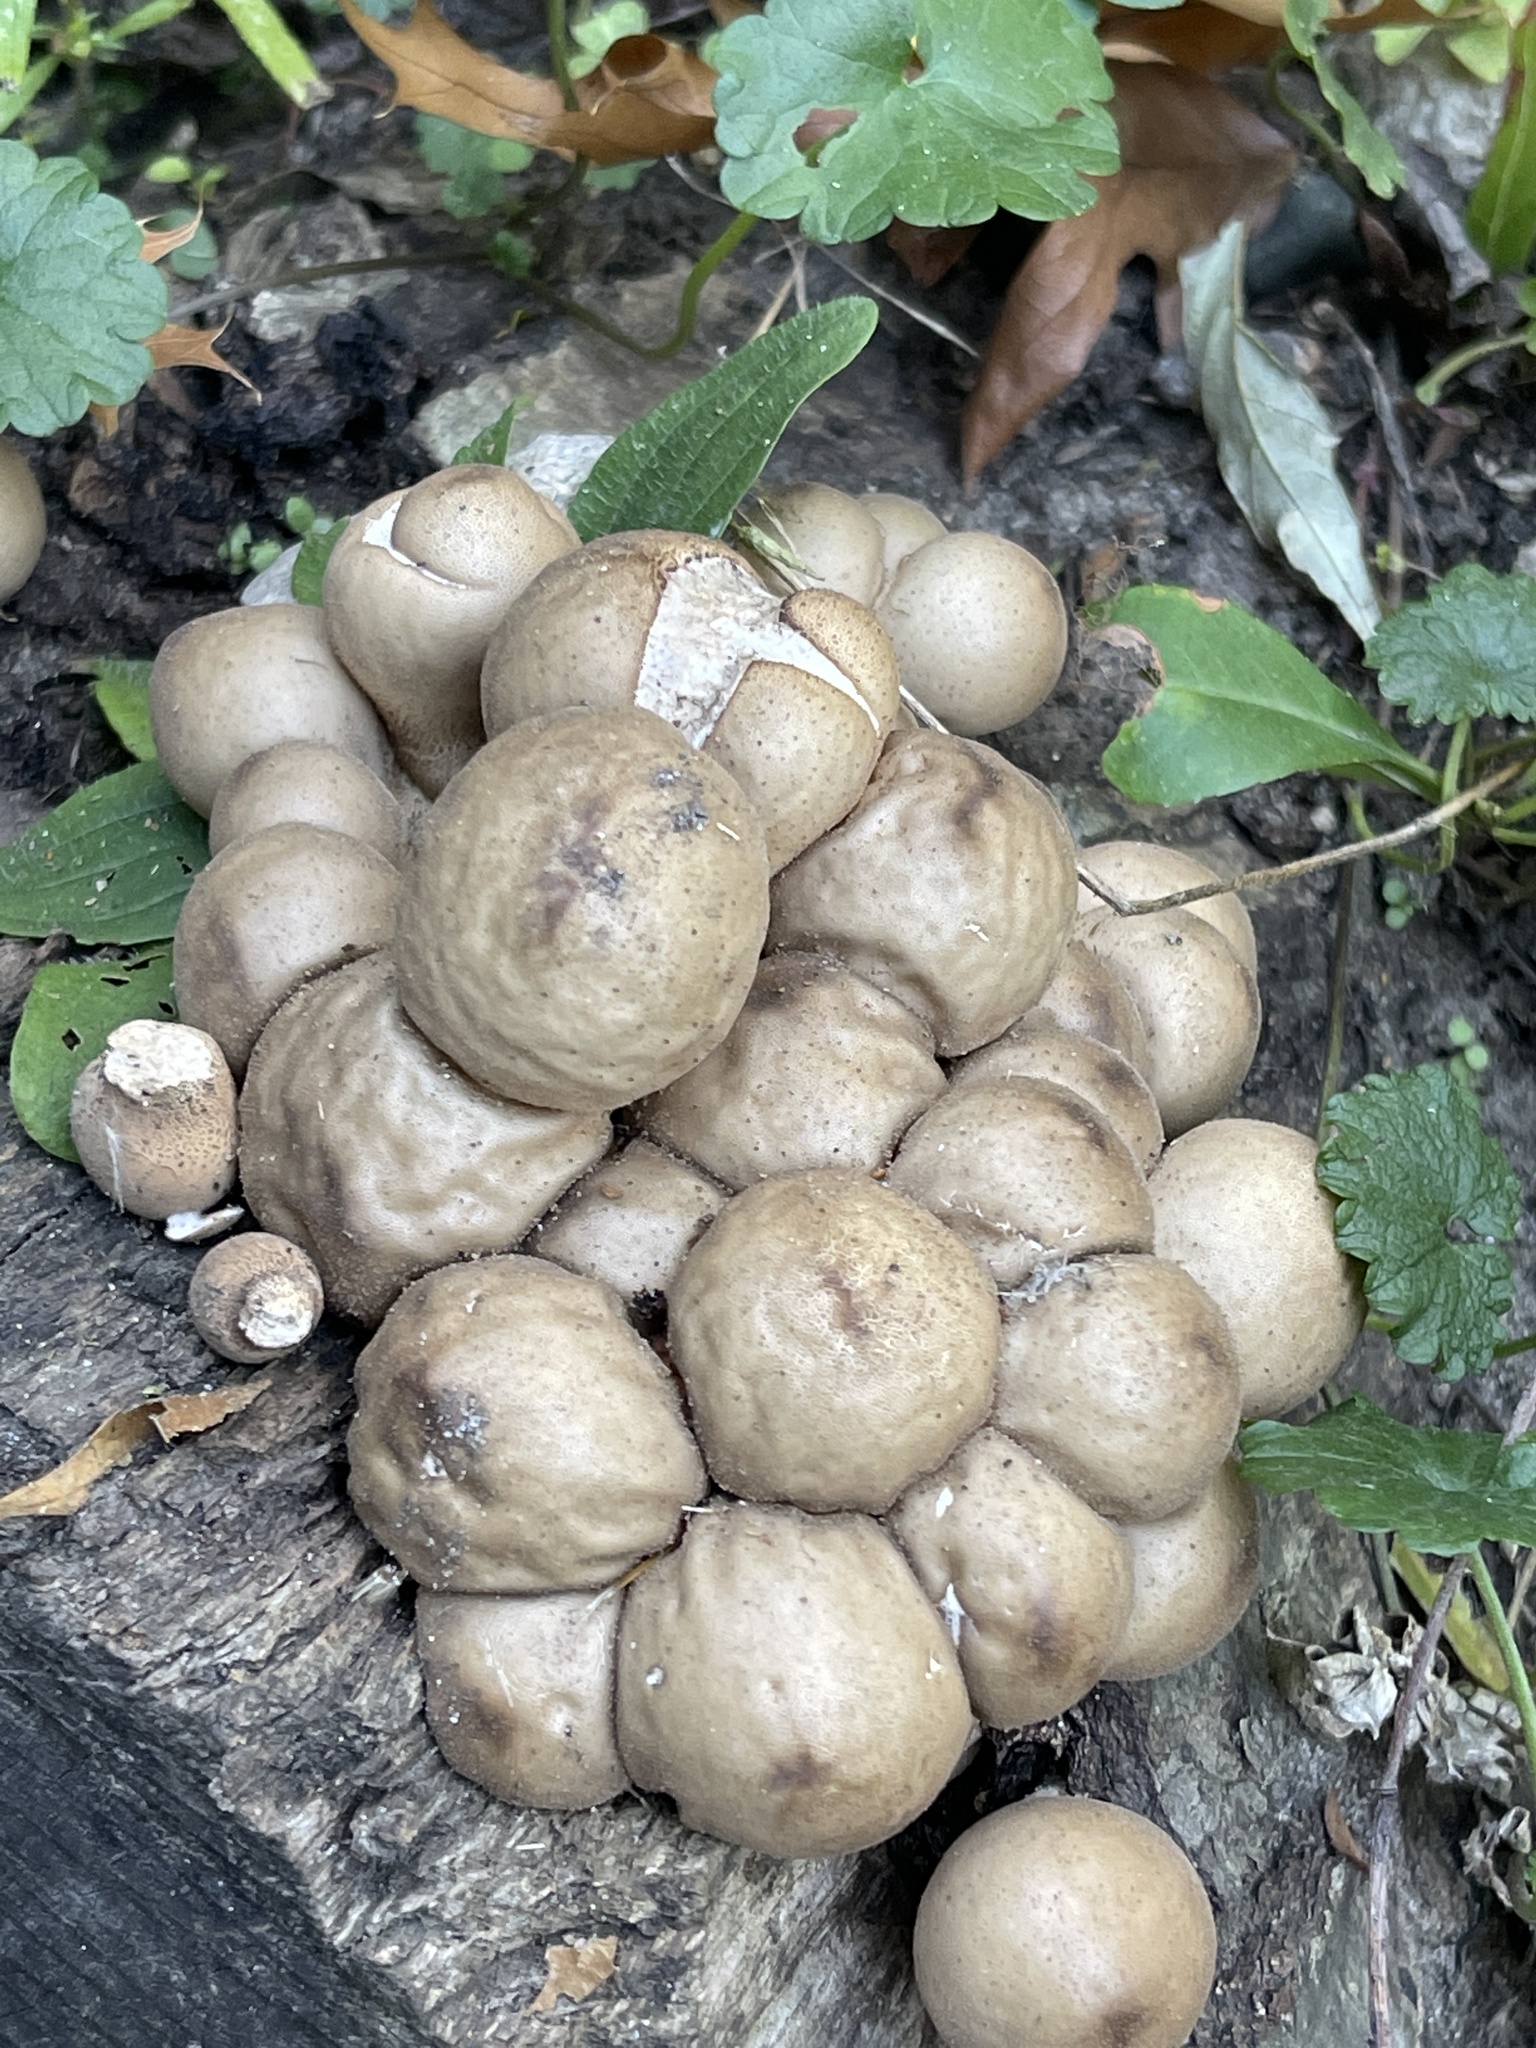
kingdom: Fungi
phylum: Basidiomycota
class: Agaricomycetes
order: Agaricales
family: Lycoperdaceae
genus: Apioperdon
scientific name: Apioperdon pyriforme
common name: Pear-shaped puffball
